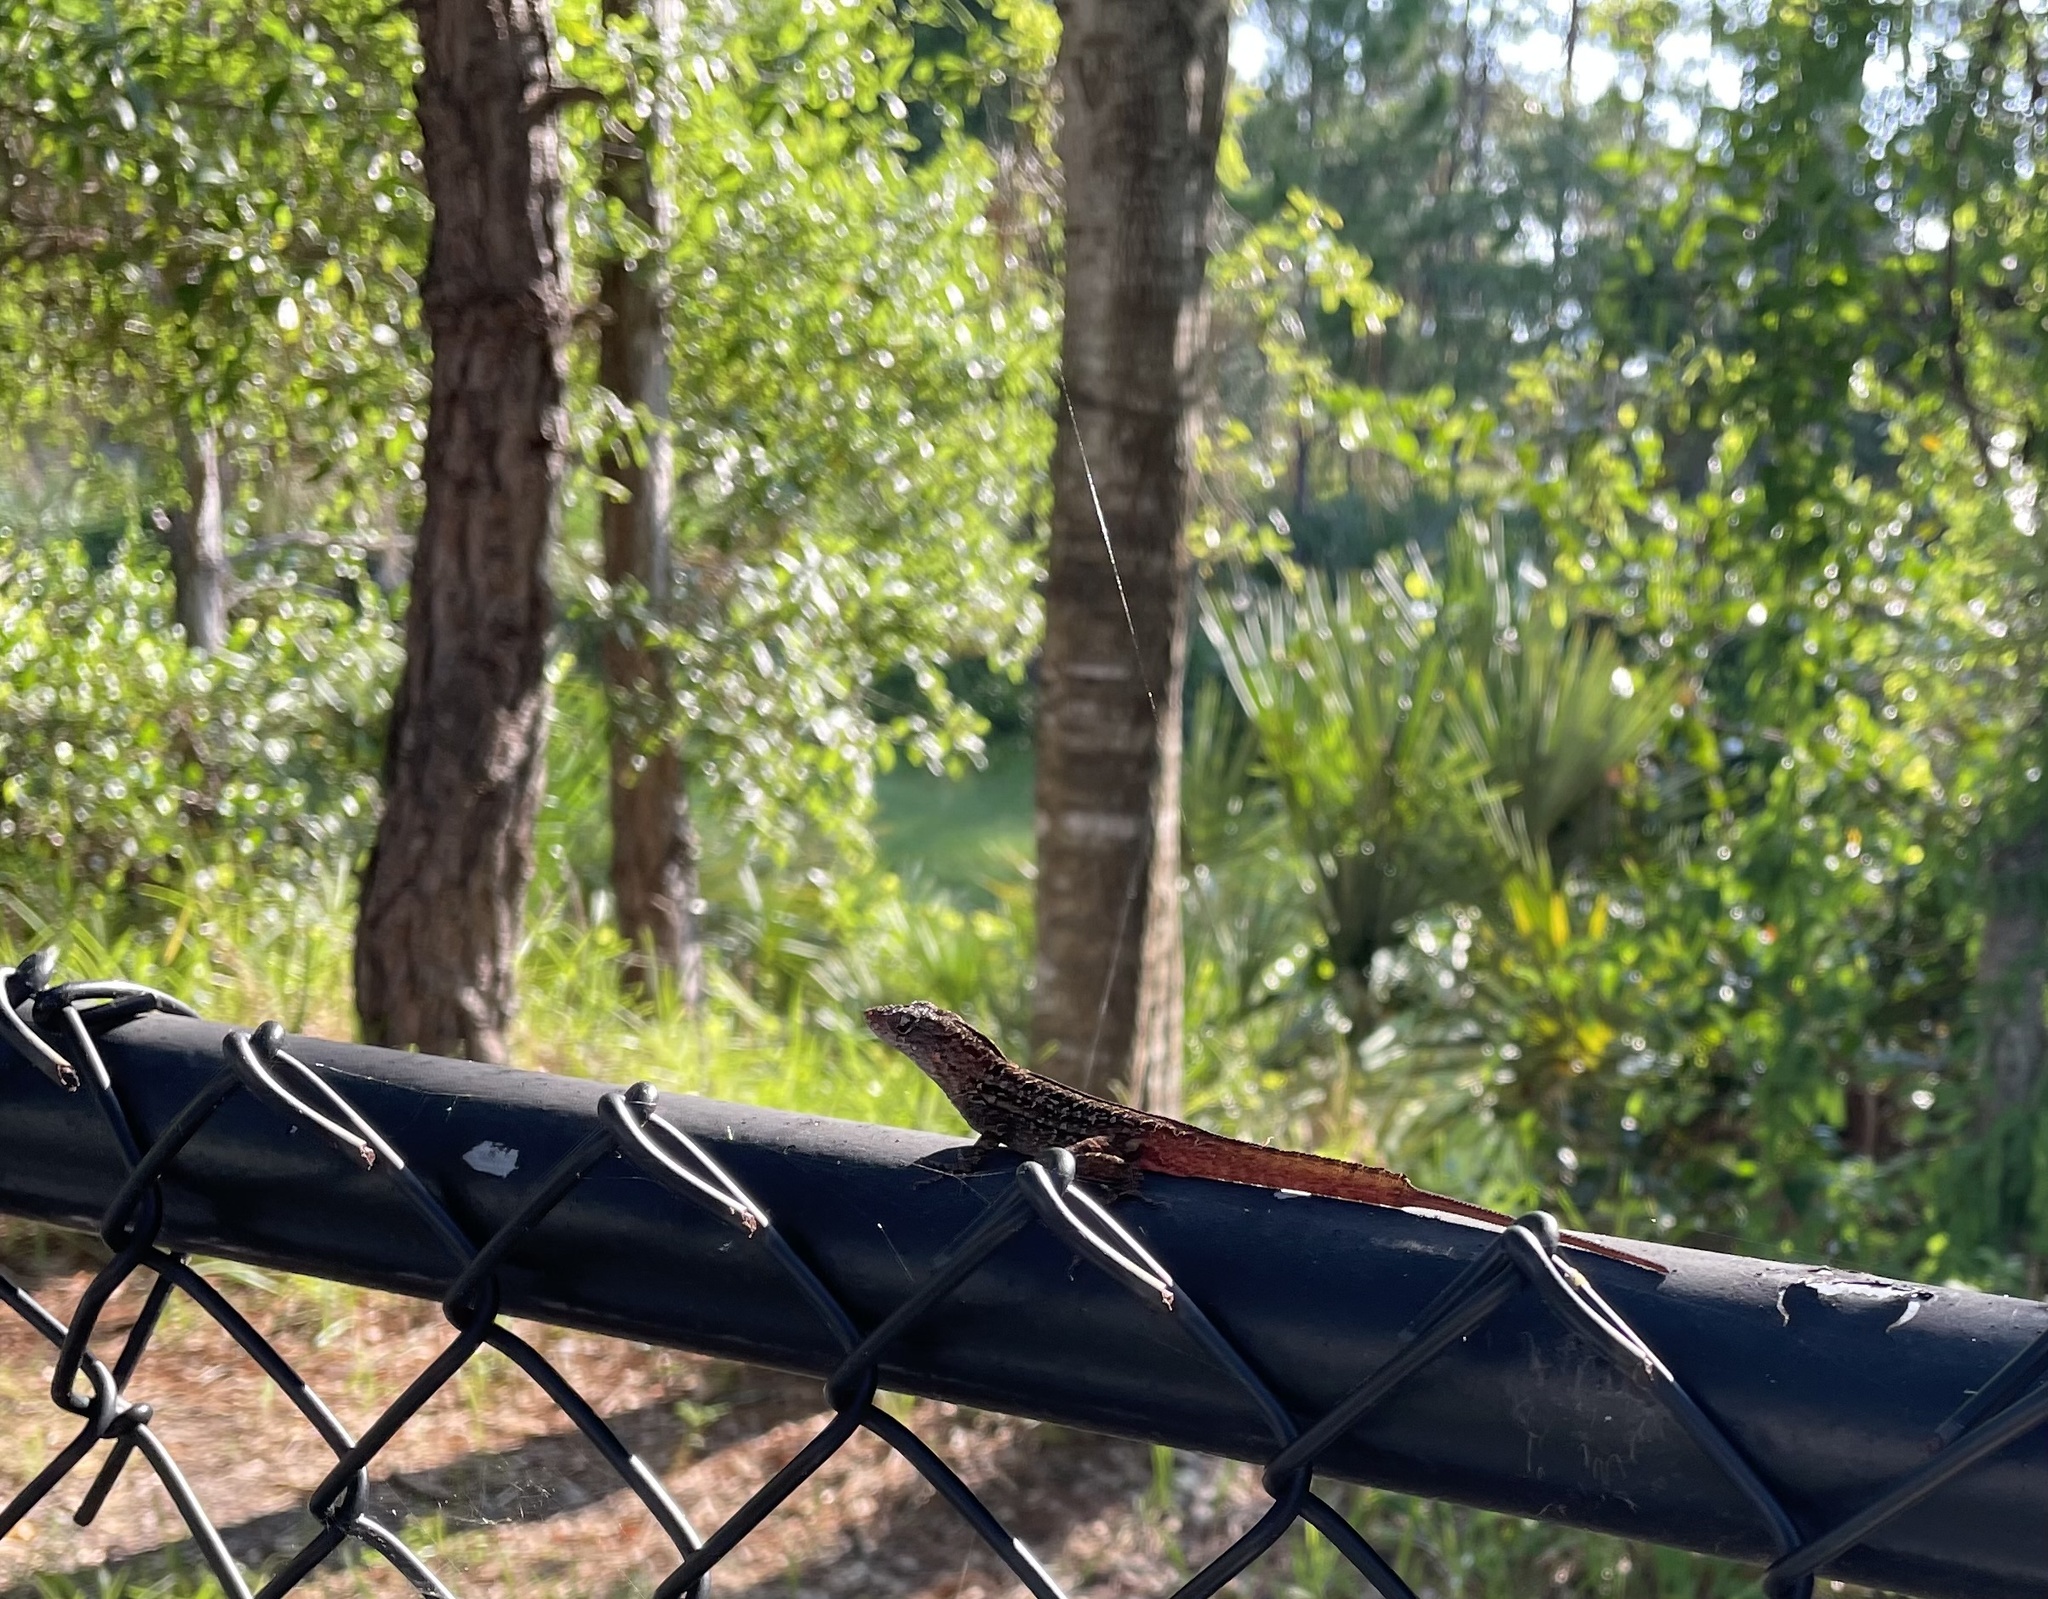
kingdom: Animalia
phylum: Chordata
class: Squamata
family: Dactyloidae
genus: Anolis
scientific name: Anolis sagrei
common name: Brown anole
